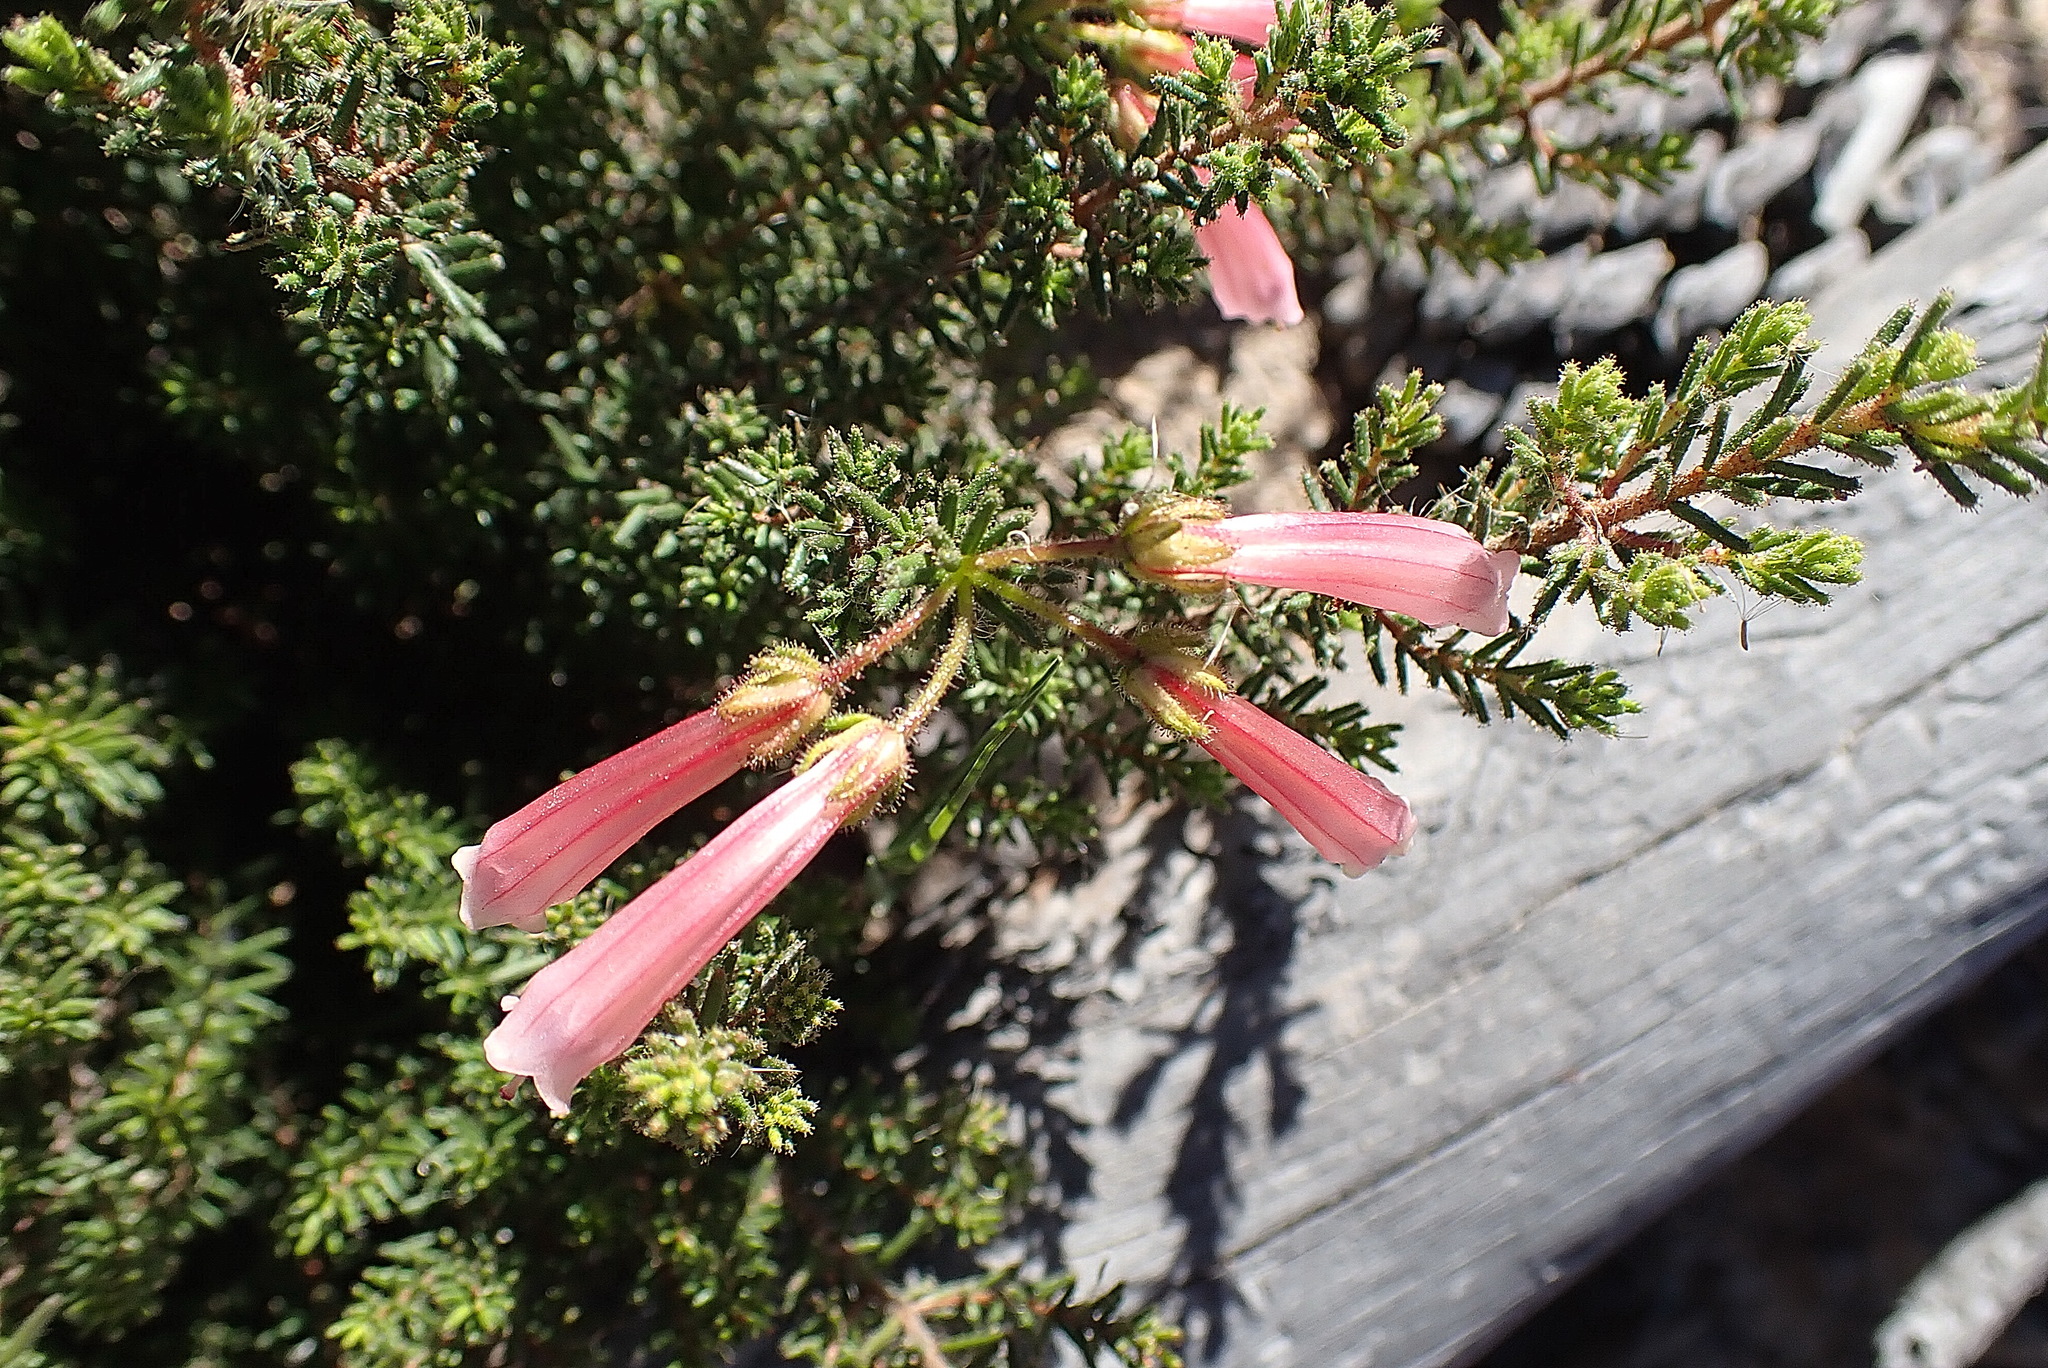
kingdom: Plantae
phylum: Tracheophyta
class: Magnoliopsida
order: Ericales
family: Ericaceae
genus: Erica
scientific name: Erica glandulosa
